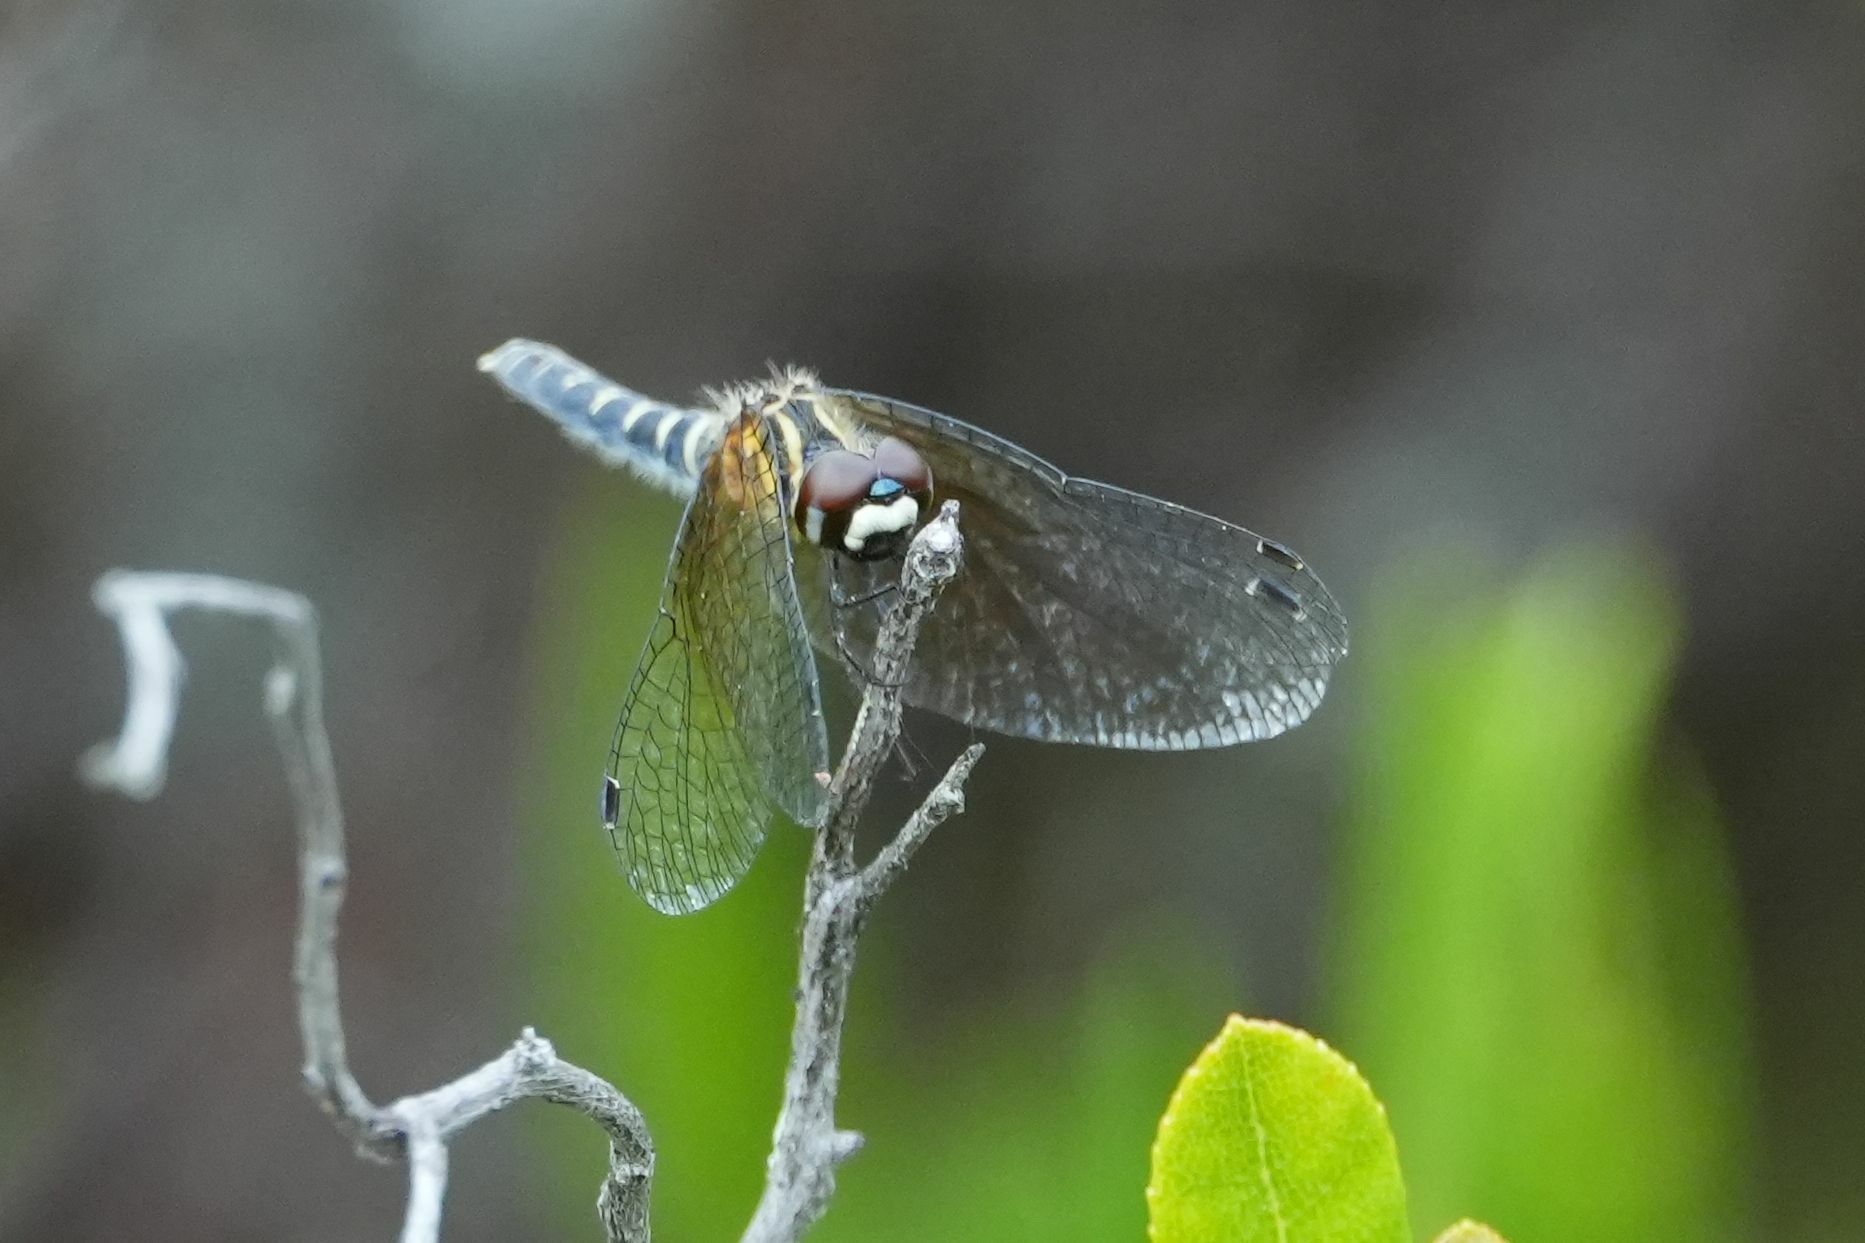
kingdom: Animalia
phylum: Arthropoda
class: Insecta
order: Odonata
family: Libellulidae
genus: Nannothemis
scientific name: Nannothemis bella
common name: Elfin skimmer
